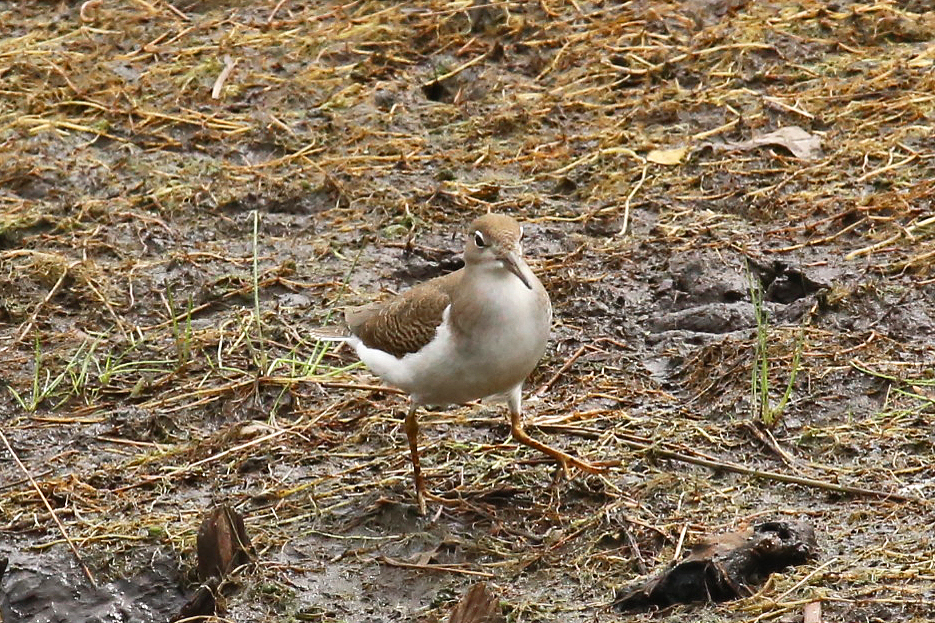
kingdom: Animalia
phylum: Chordata
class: Aves
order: Charadriiformes
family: Scolopacidae
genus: Actitis
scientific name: Actitis macularius
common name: Spotted sandpiper
